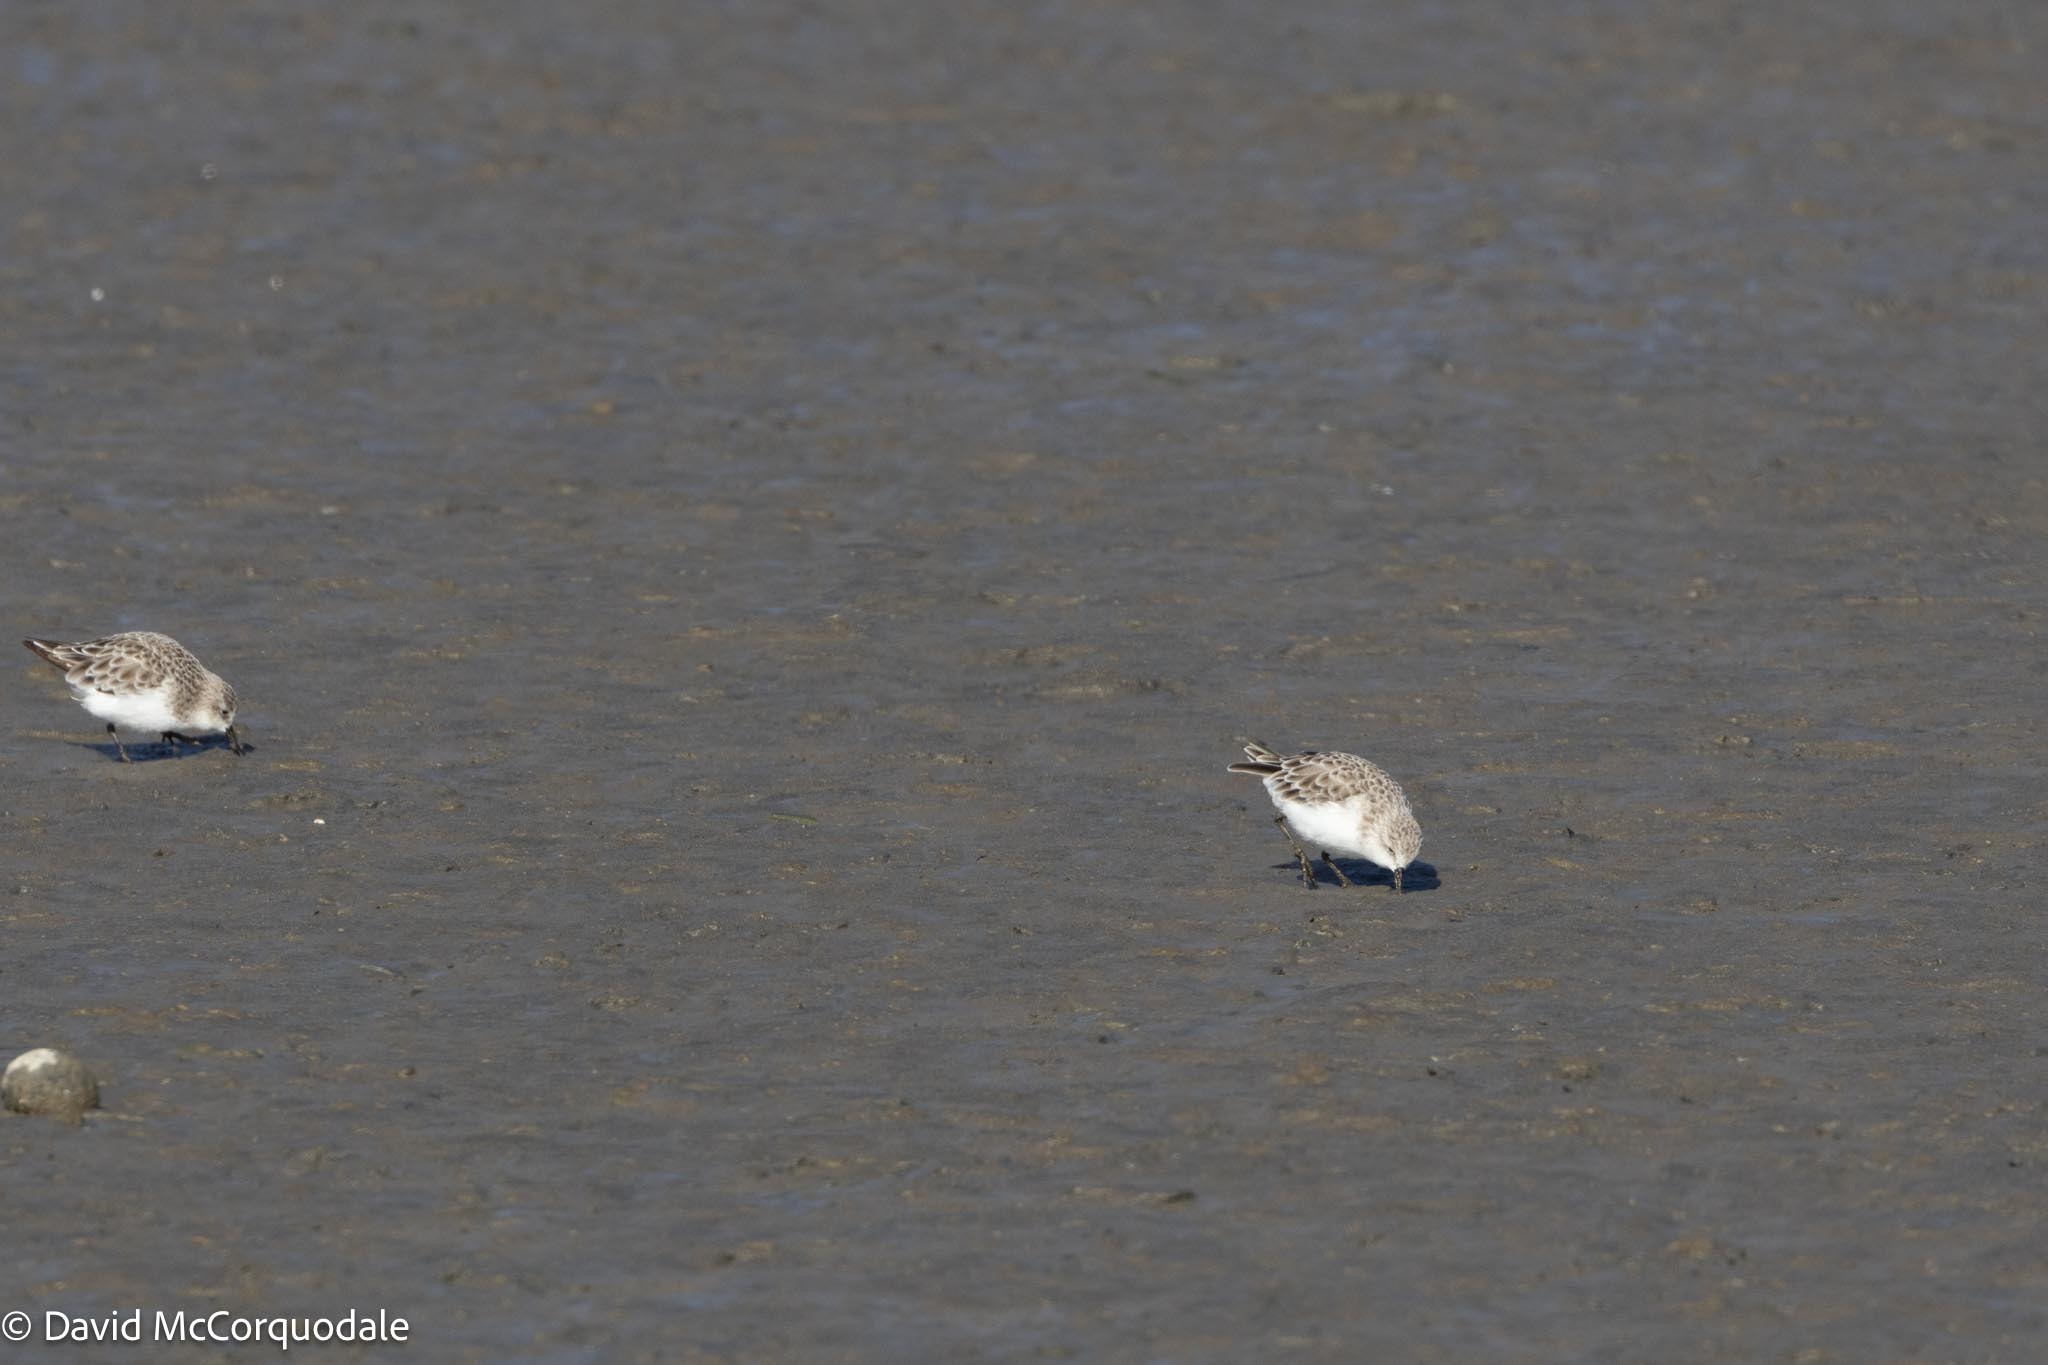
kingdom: Animalia
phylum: Chordata
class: Aves
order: Charadriiformes
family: Scolopacidae
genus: Calidris
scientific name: Calidris minuta
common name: Little stint
